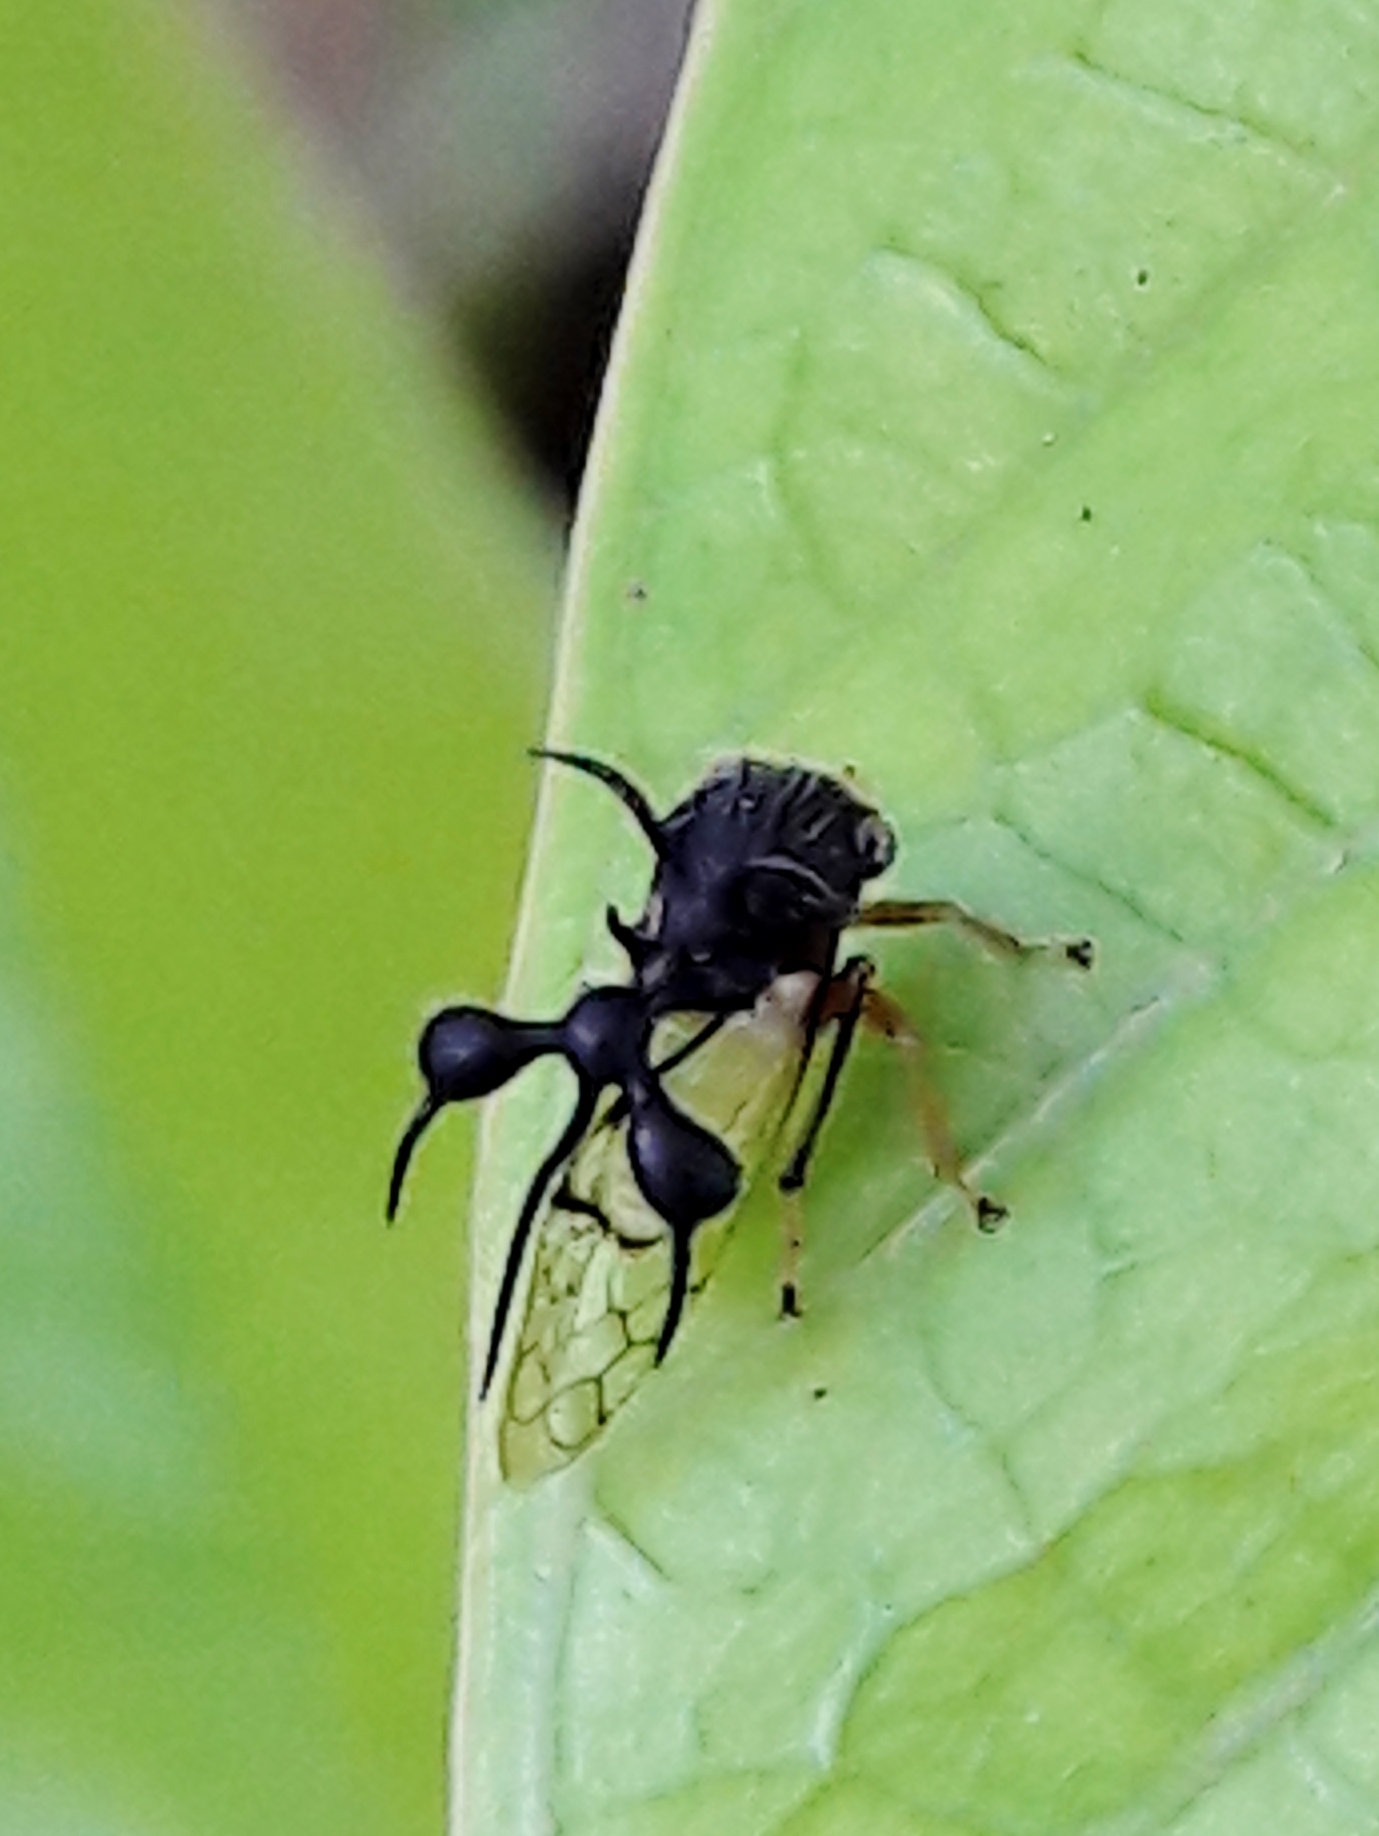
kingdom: Animalia
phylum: Arthropoda
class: Insecta
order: Hemiptera
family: Membracidae
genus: Cyphonia
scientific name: Cyphonia clavata
